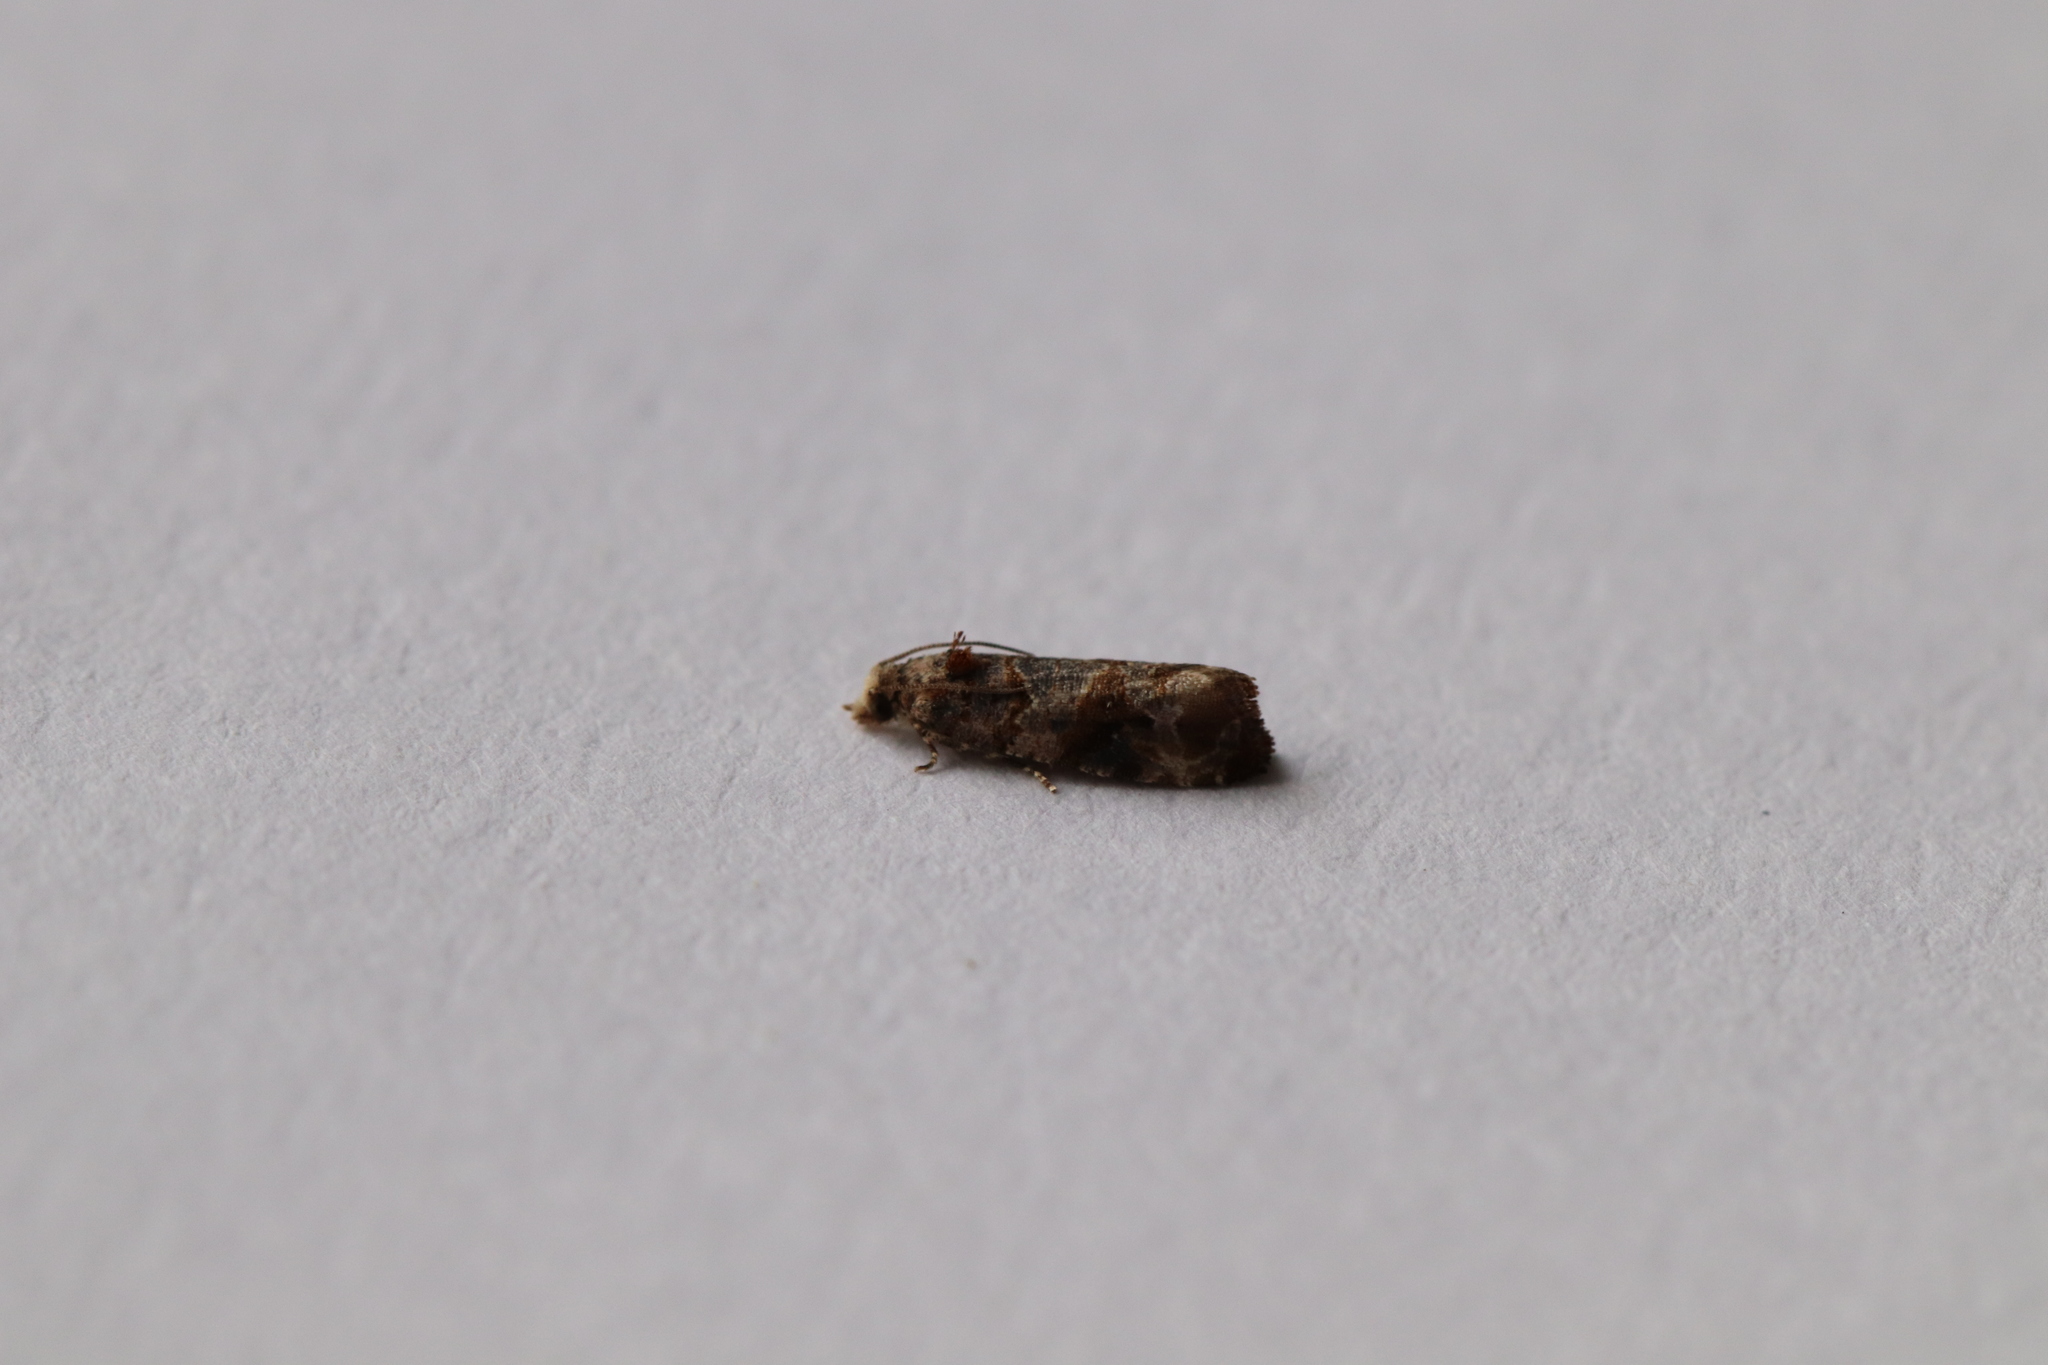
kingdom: Animalia
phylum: Arthropoda
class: Insecta
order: Lepidoptera
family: Tortricidae
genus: Lobesia
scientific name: Lobesia botrana
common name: European vine moth
